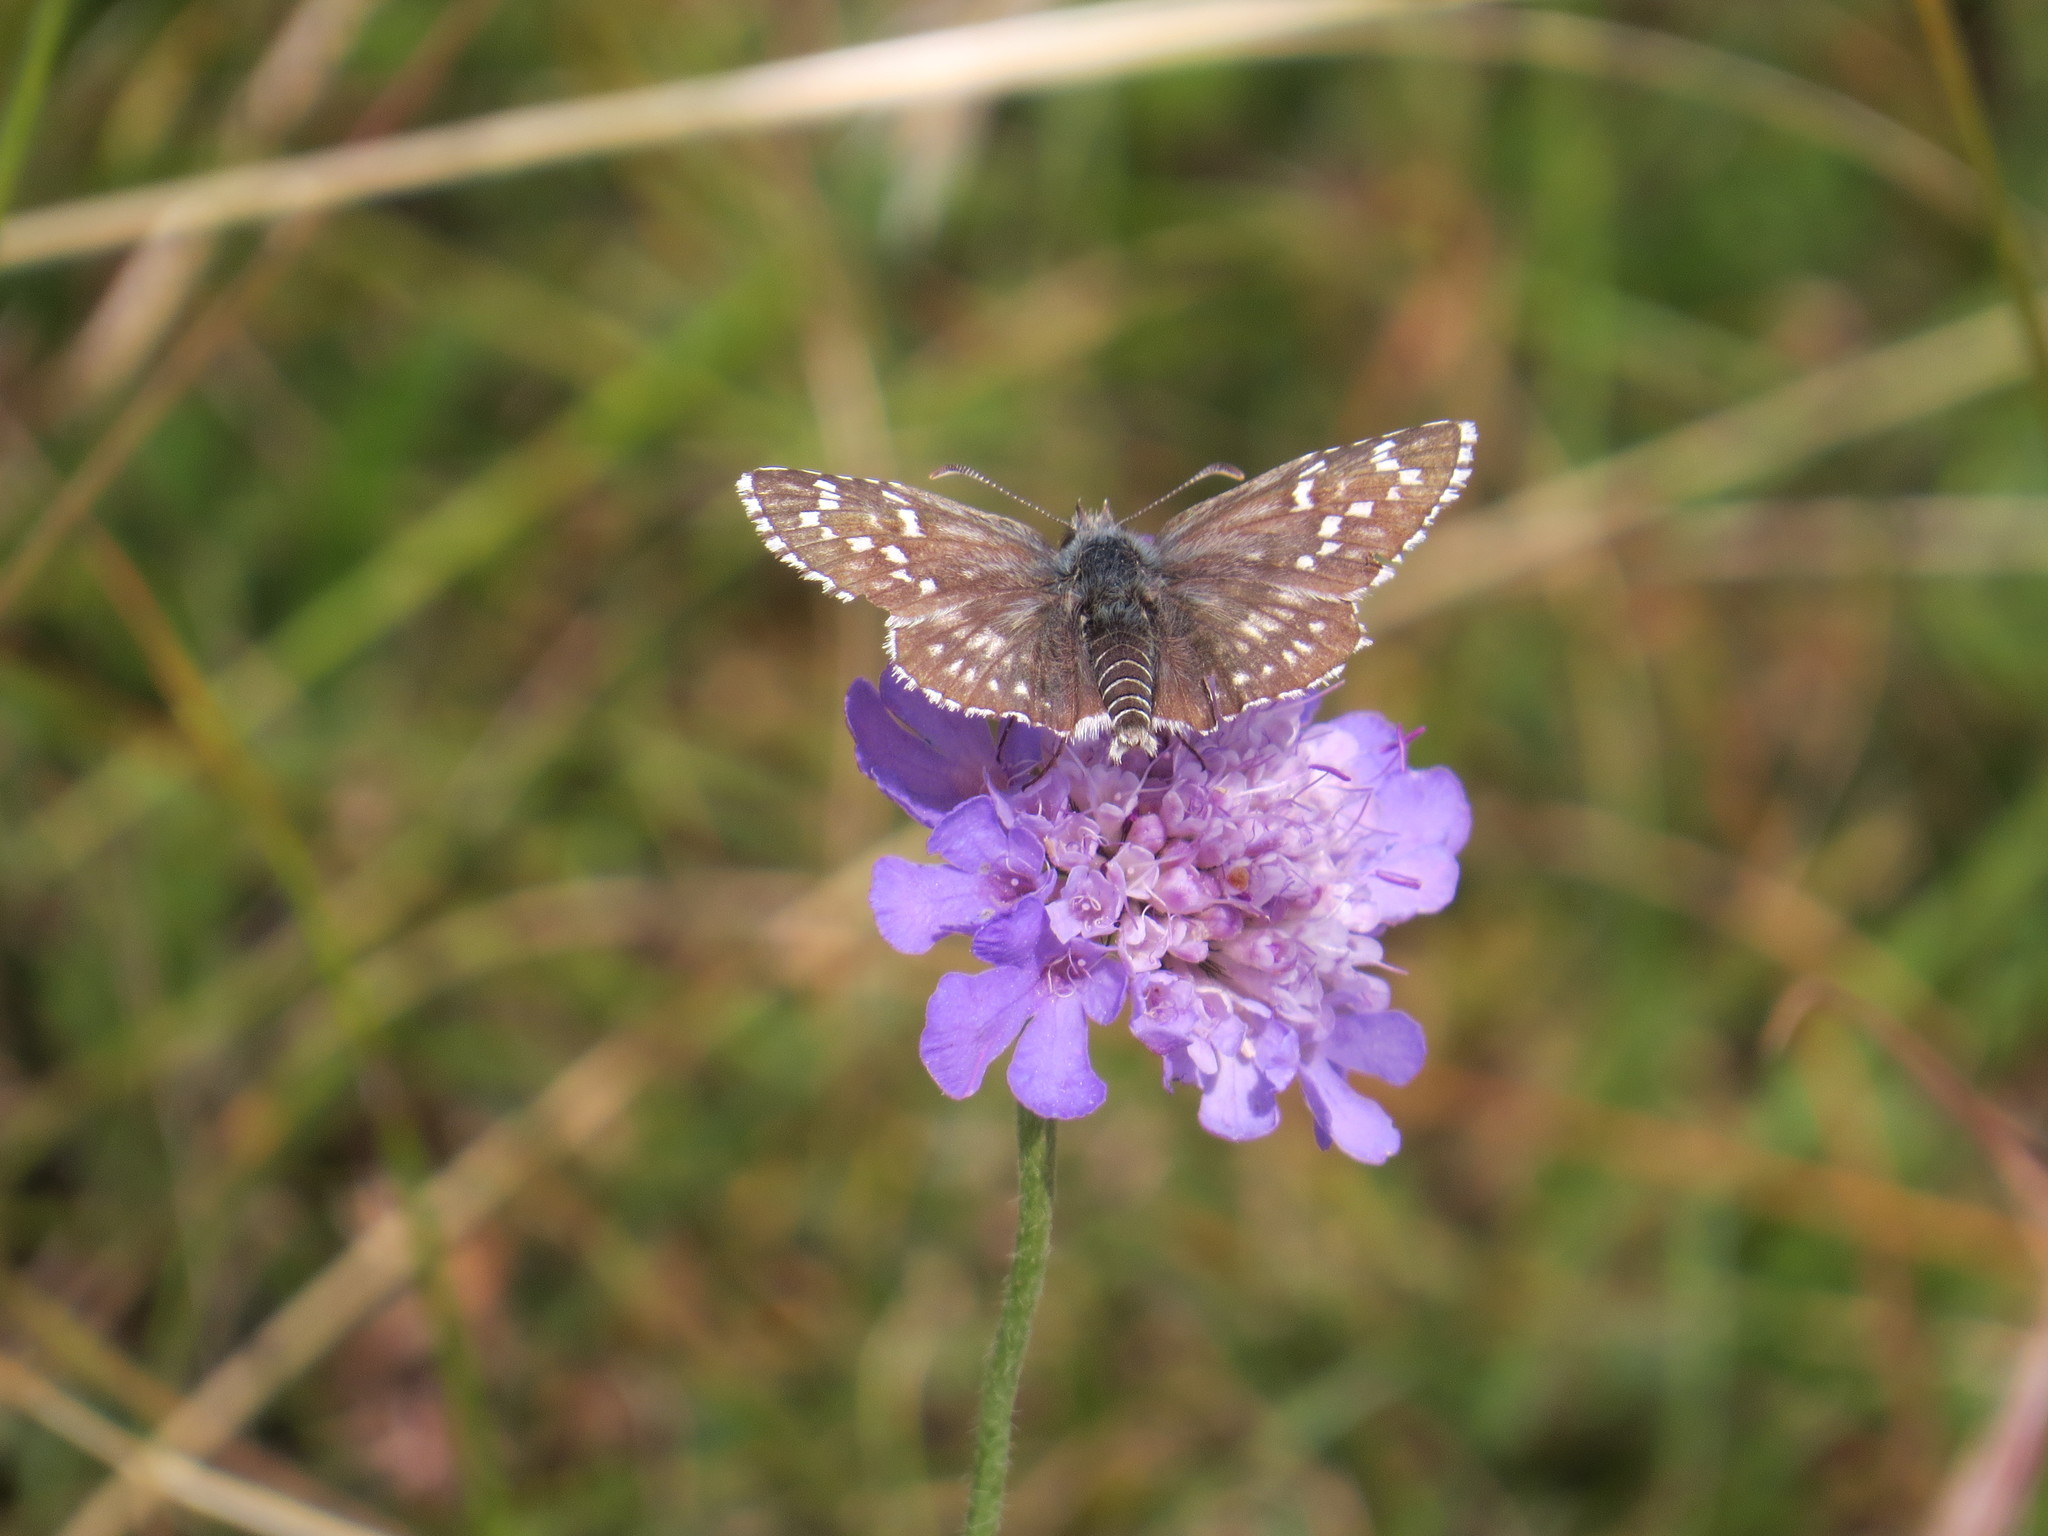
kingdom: Animalia
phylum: Arthropoda
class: Insecta
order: Lepidoptera
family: Hesperiidae
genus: Pyrgus
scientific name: Pyrgus fritillarius
